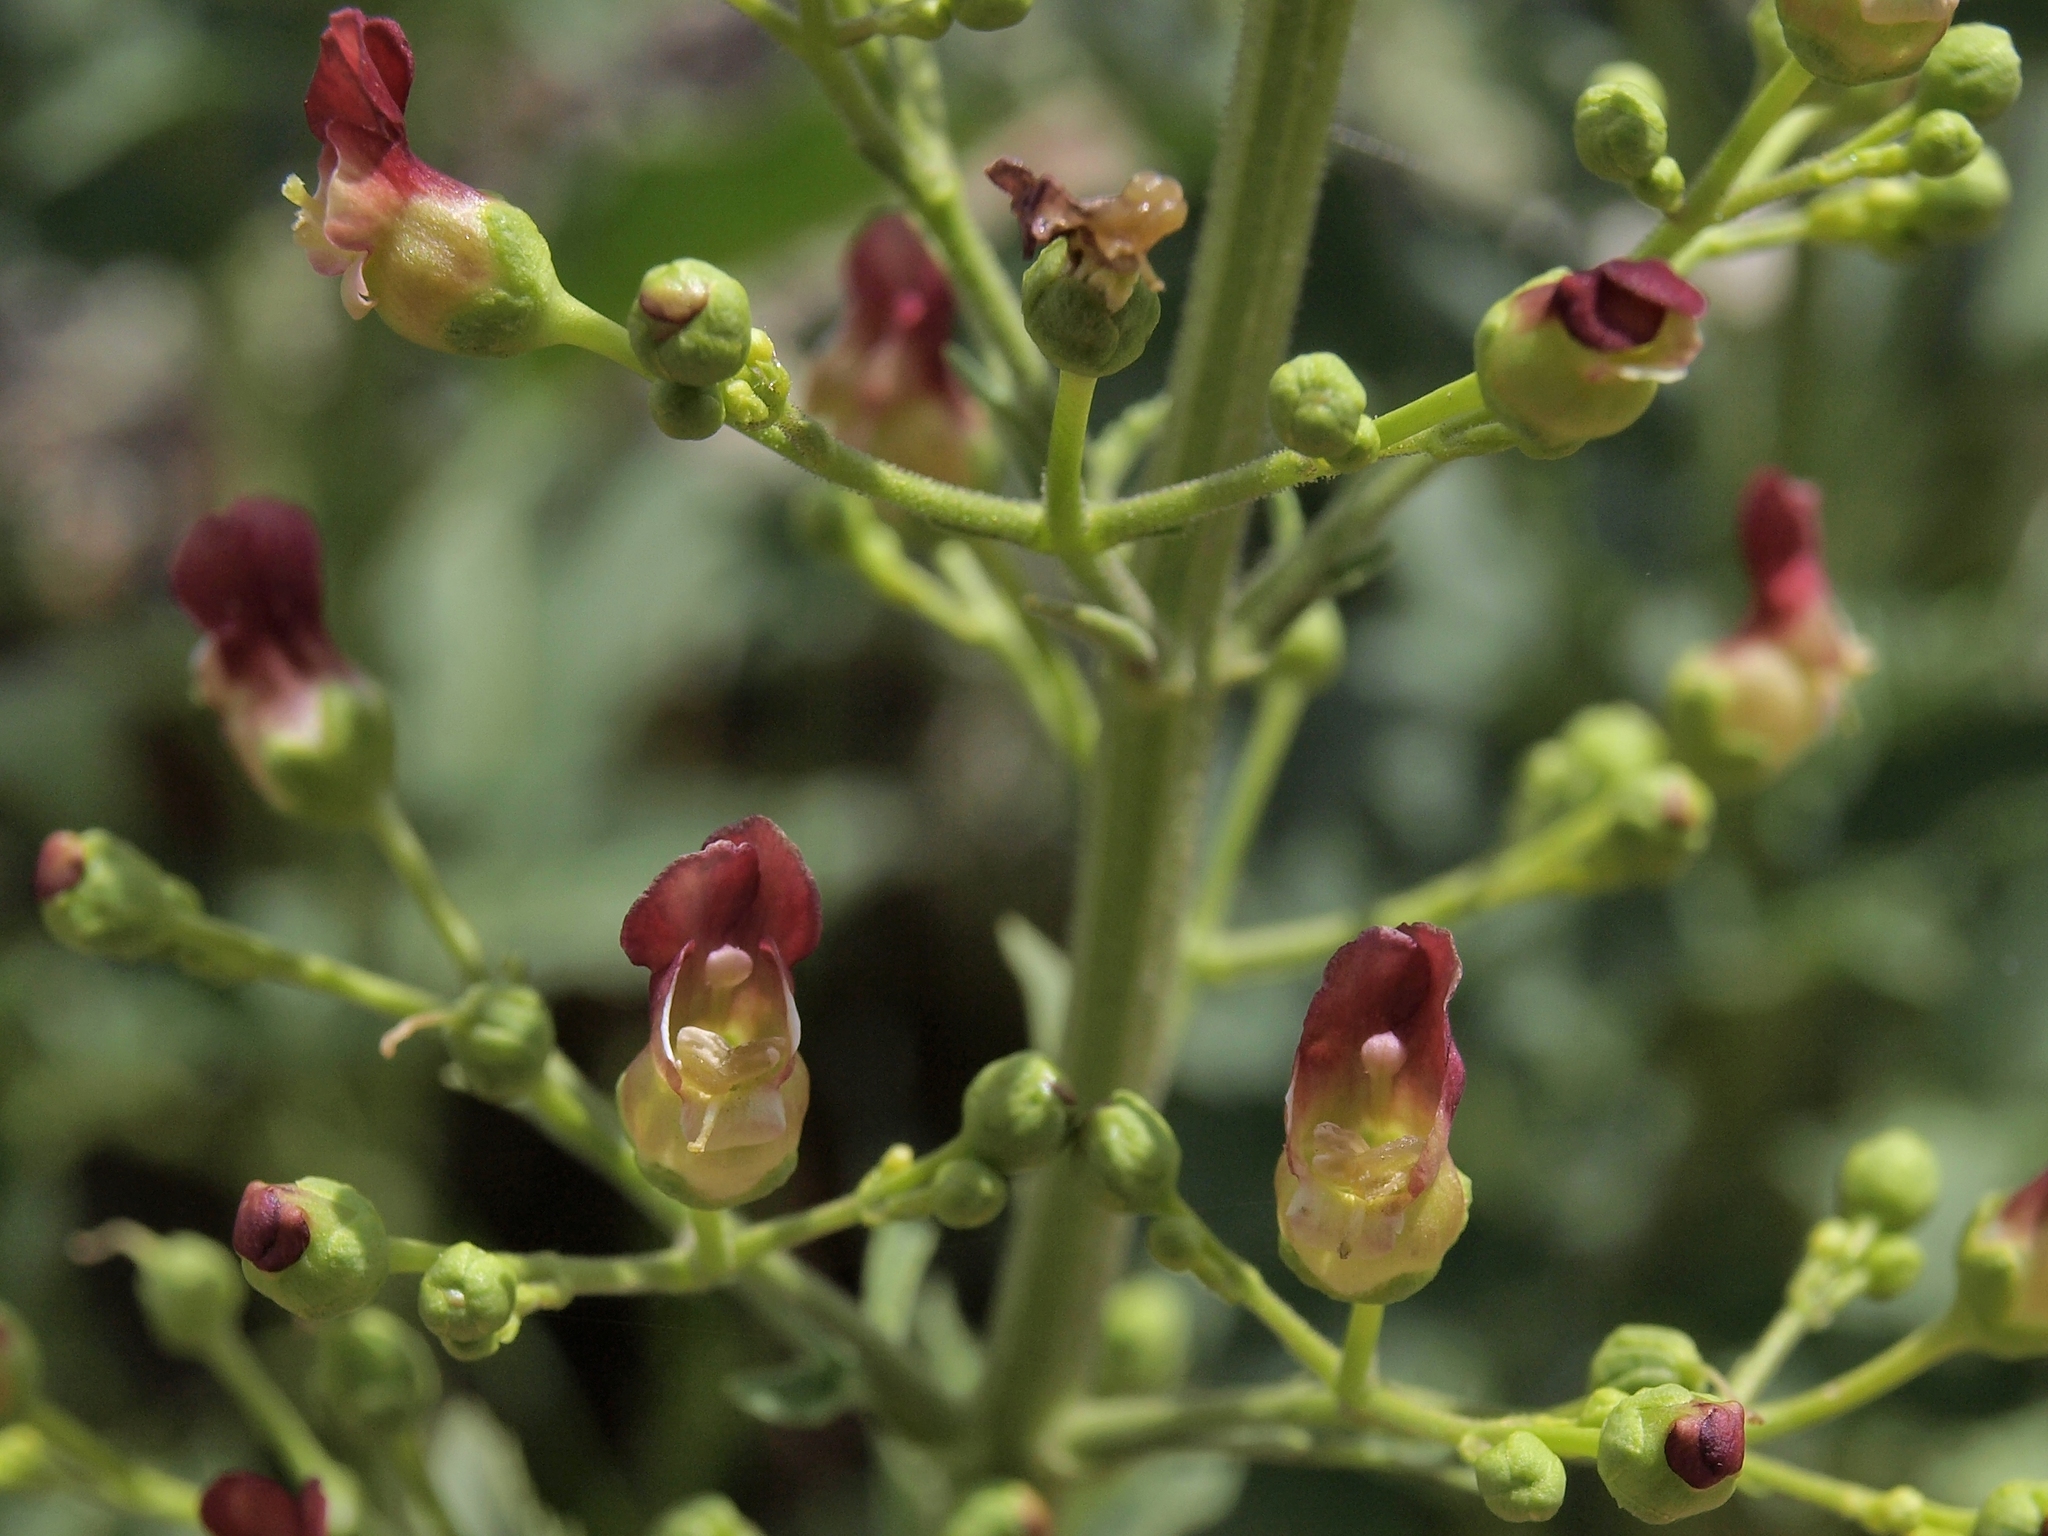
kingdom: Plantae
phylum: Tracheophyta
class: Magnoliopsida
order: Lamiales
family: Scrophulariaceae
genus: Scrophularia
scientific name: Scrophularia desertorum
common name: Desert figwort
